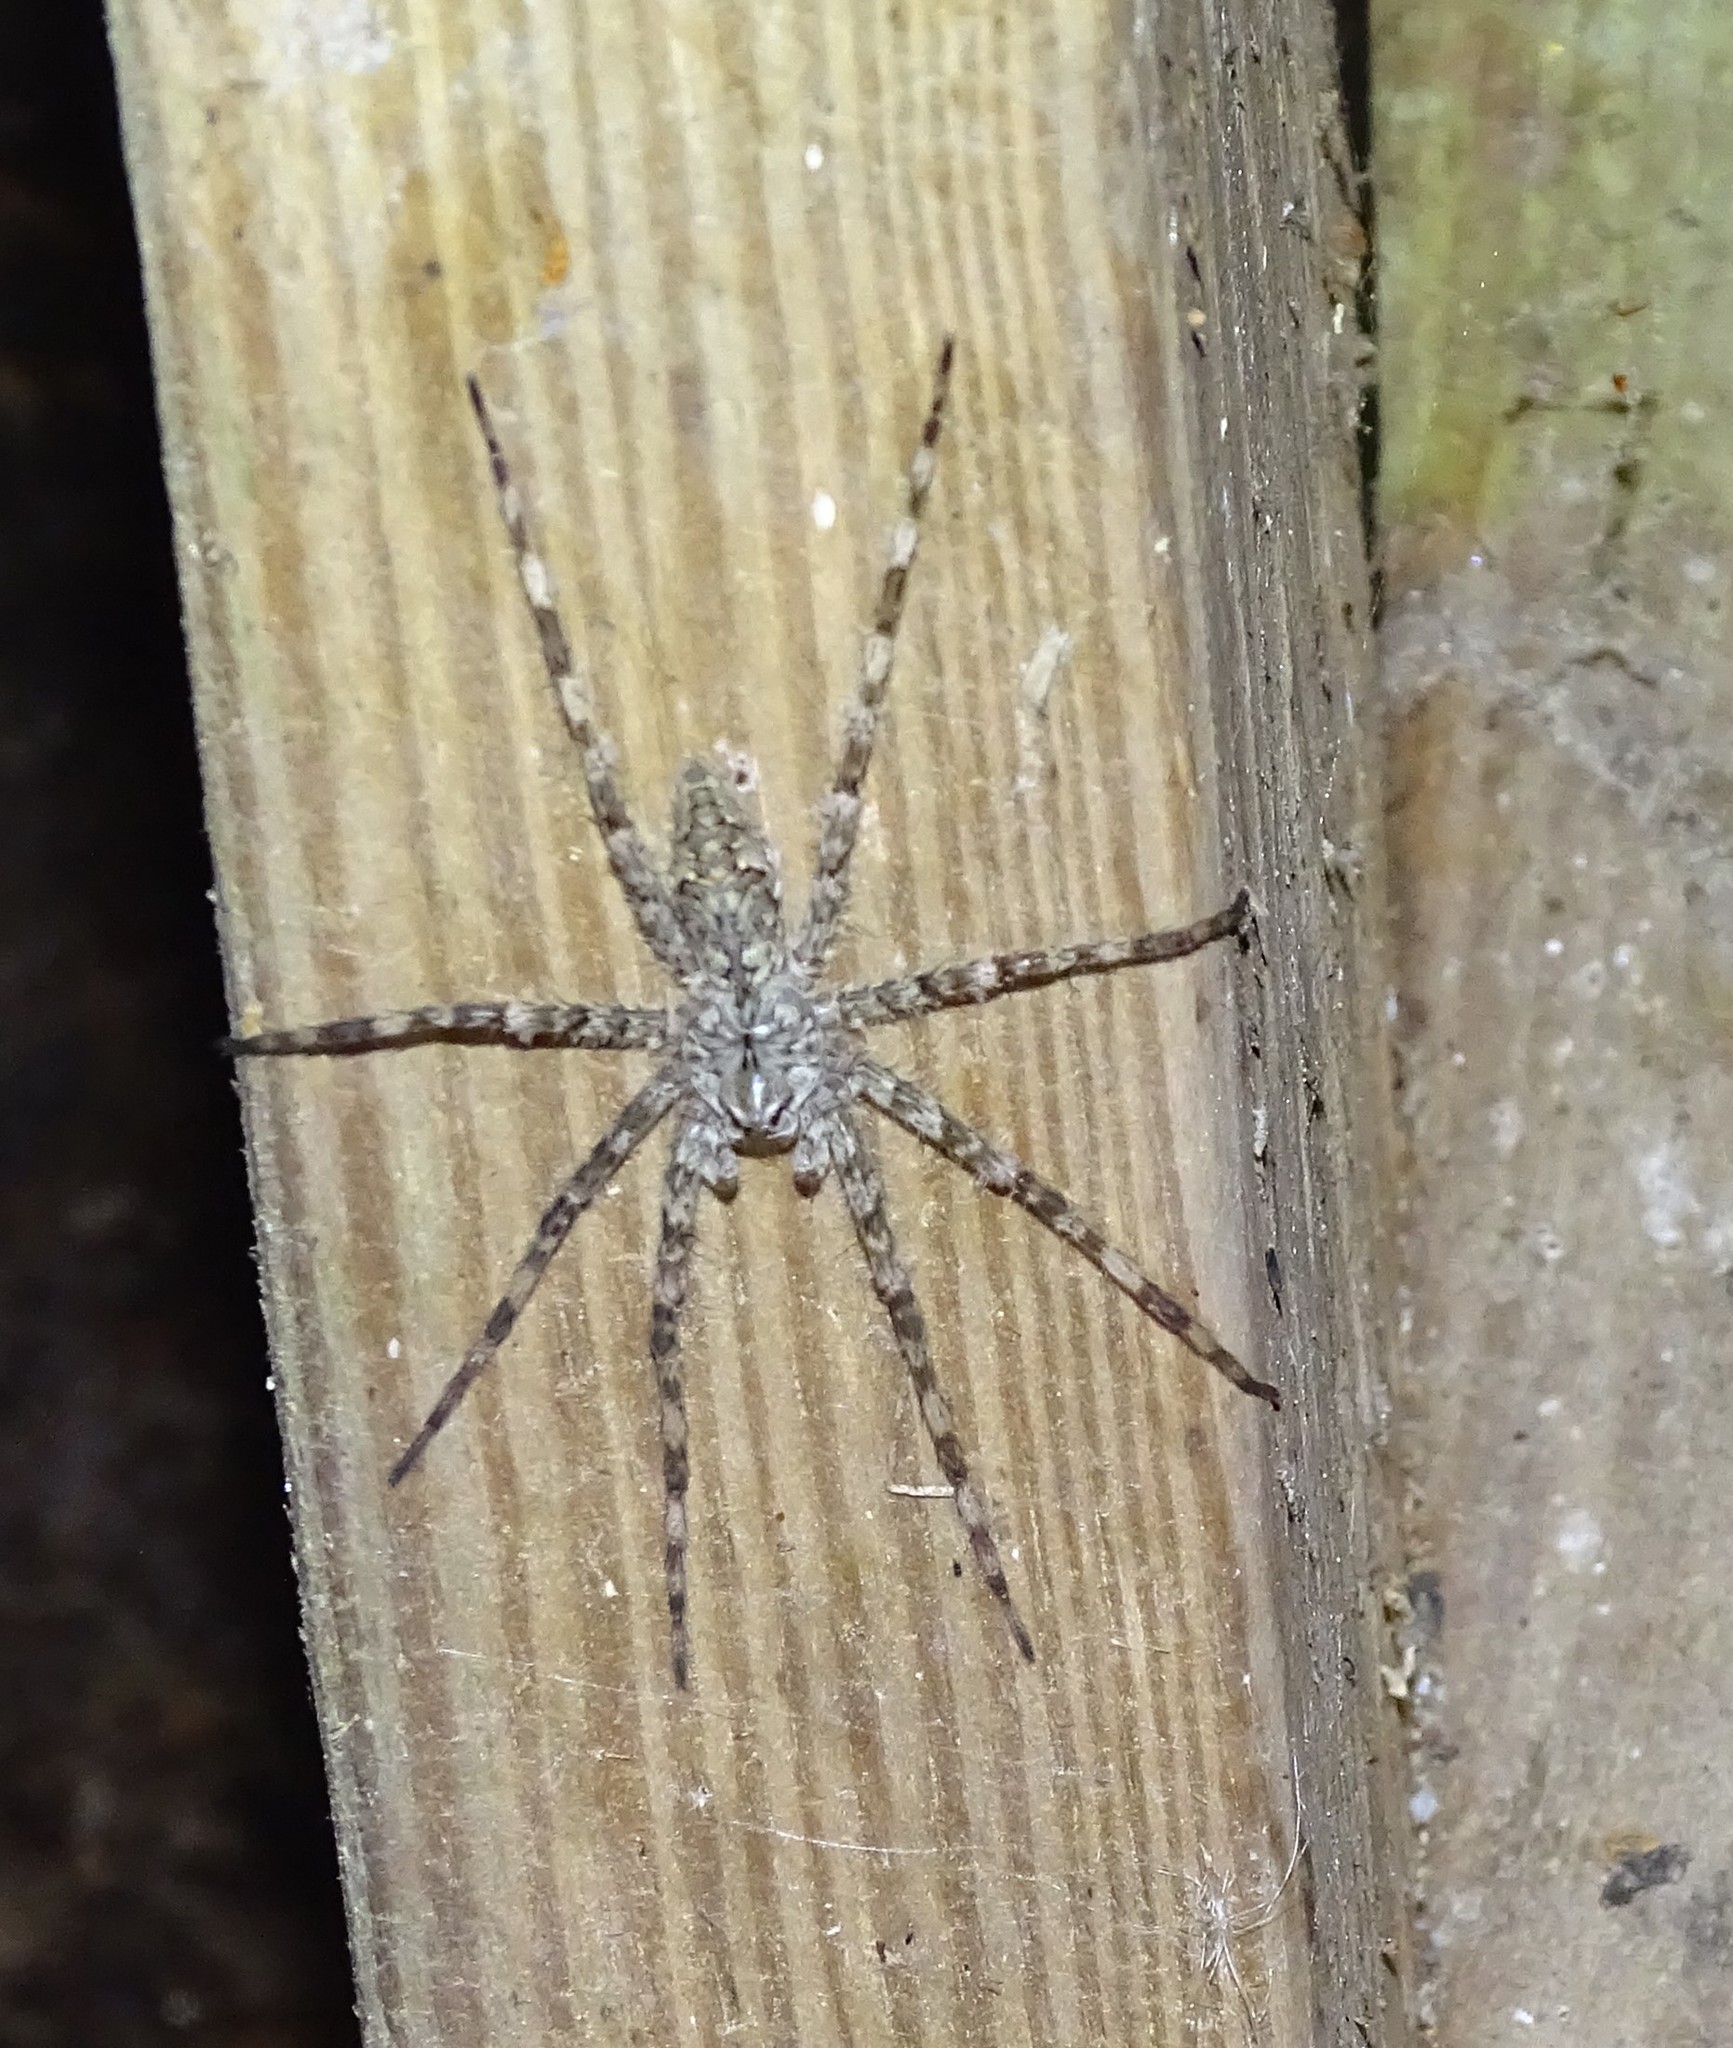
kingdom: Animalia
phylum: Arthropoda
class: Arachnida
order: Araneae
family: Pisauridae
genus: Dolomedes
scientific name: Dolomedes albineus
